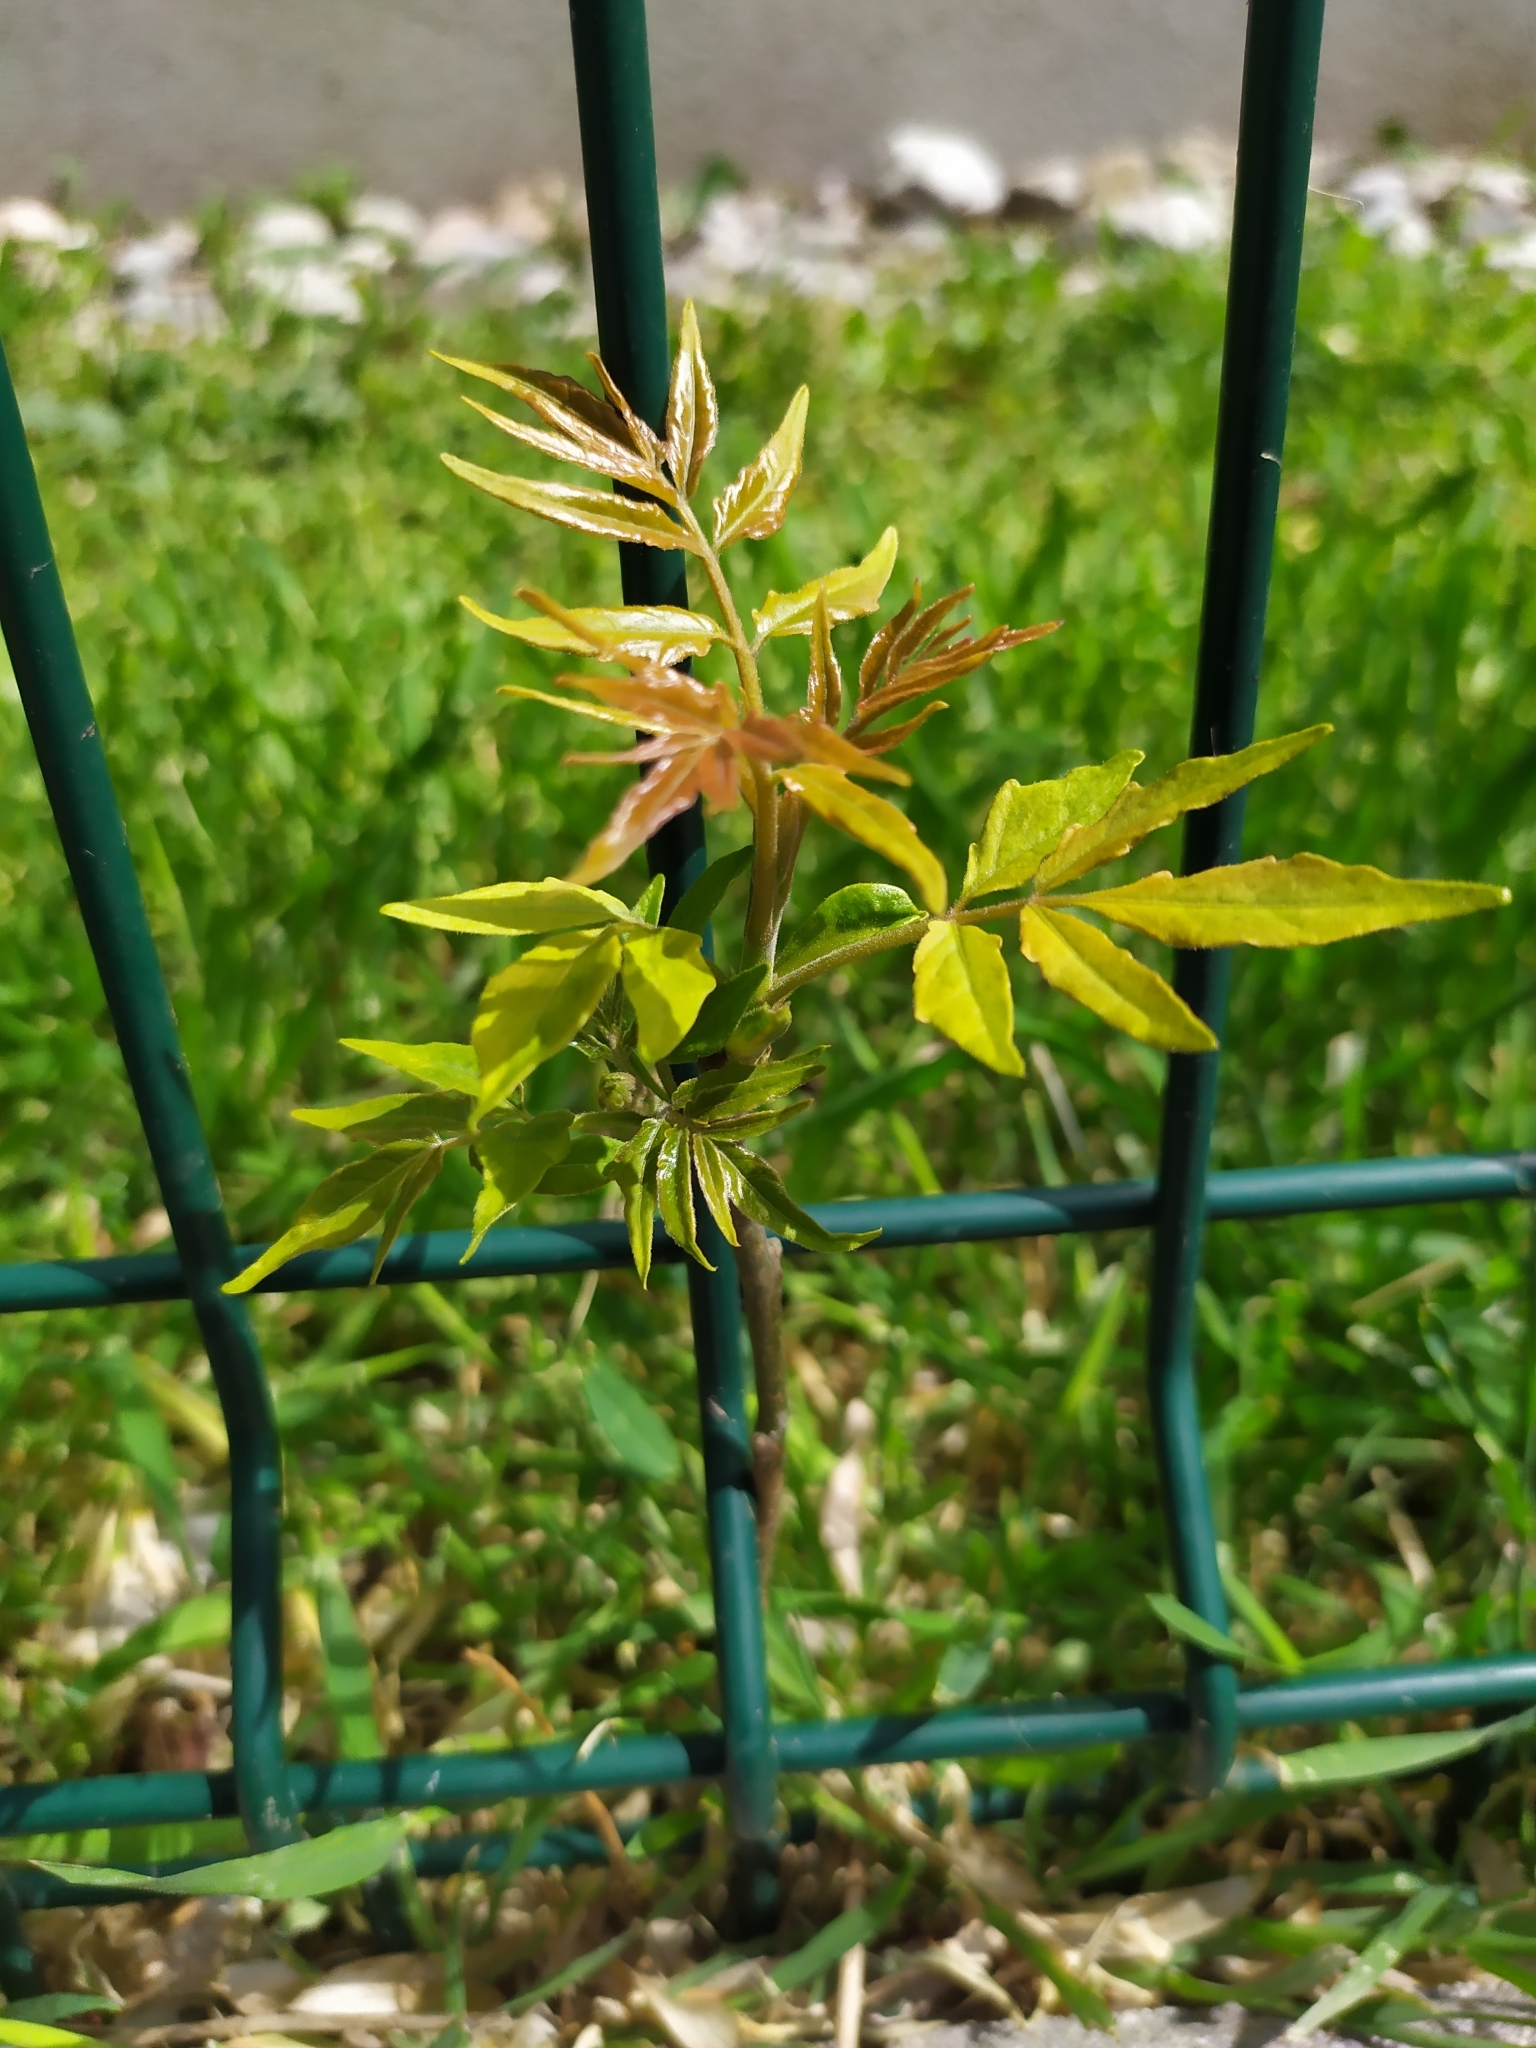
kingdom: Plantae
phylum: Tracheophyta
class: Magnoliopsida
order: Sapindales
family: Simaroubaceae
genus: Ailanthus
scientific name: Ailanthus altissima
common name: Tree-of-heaven
